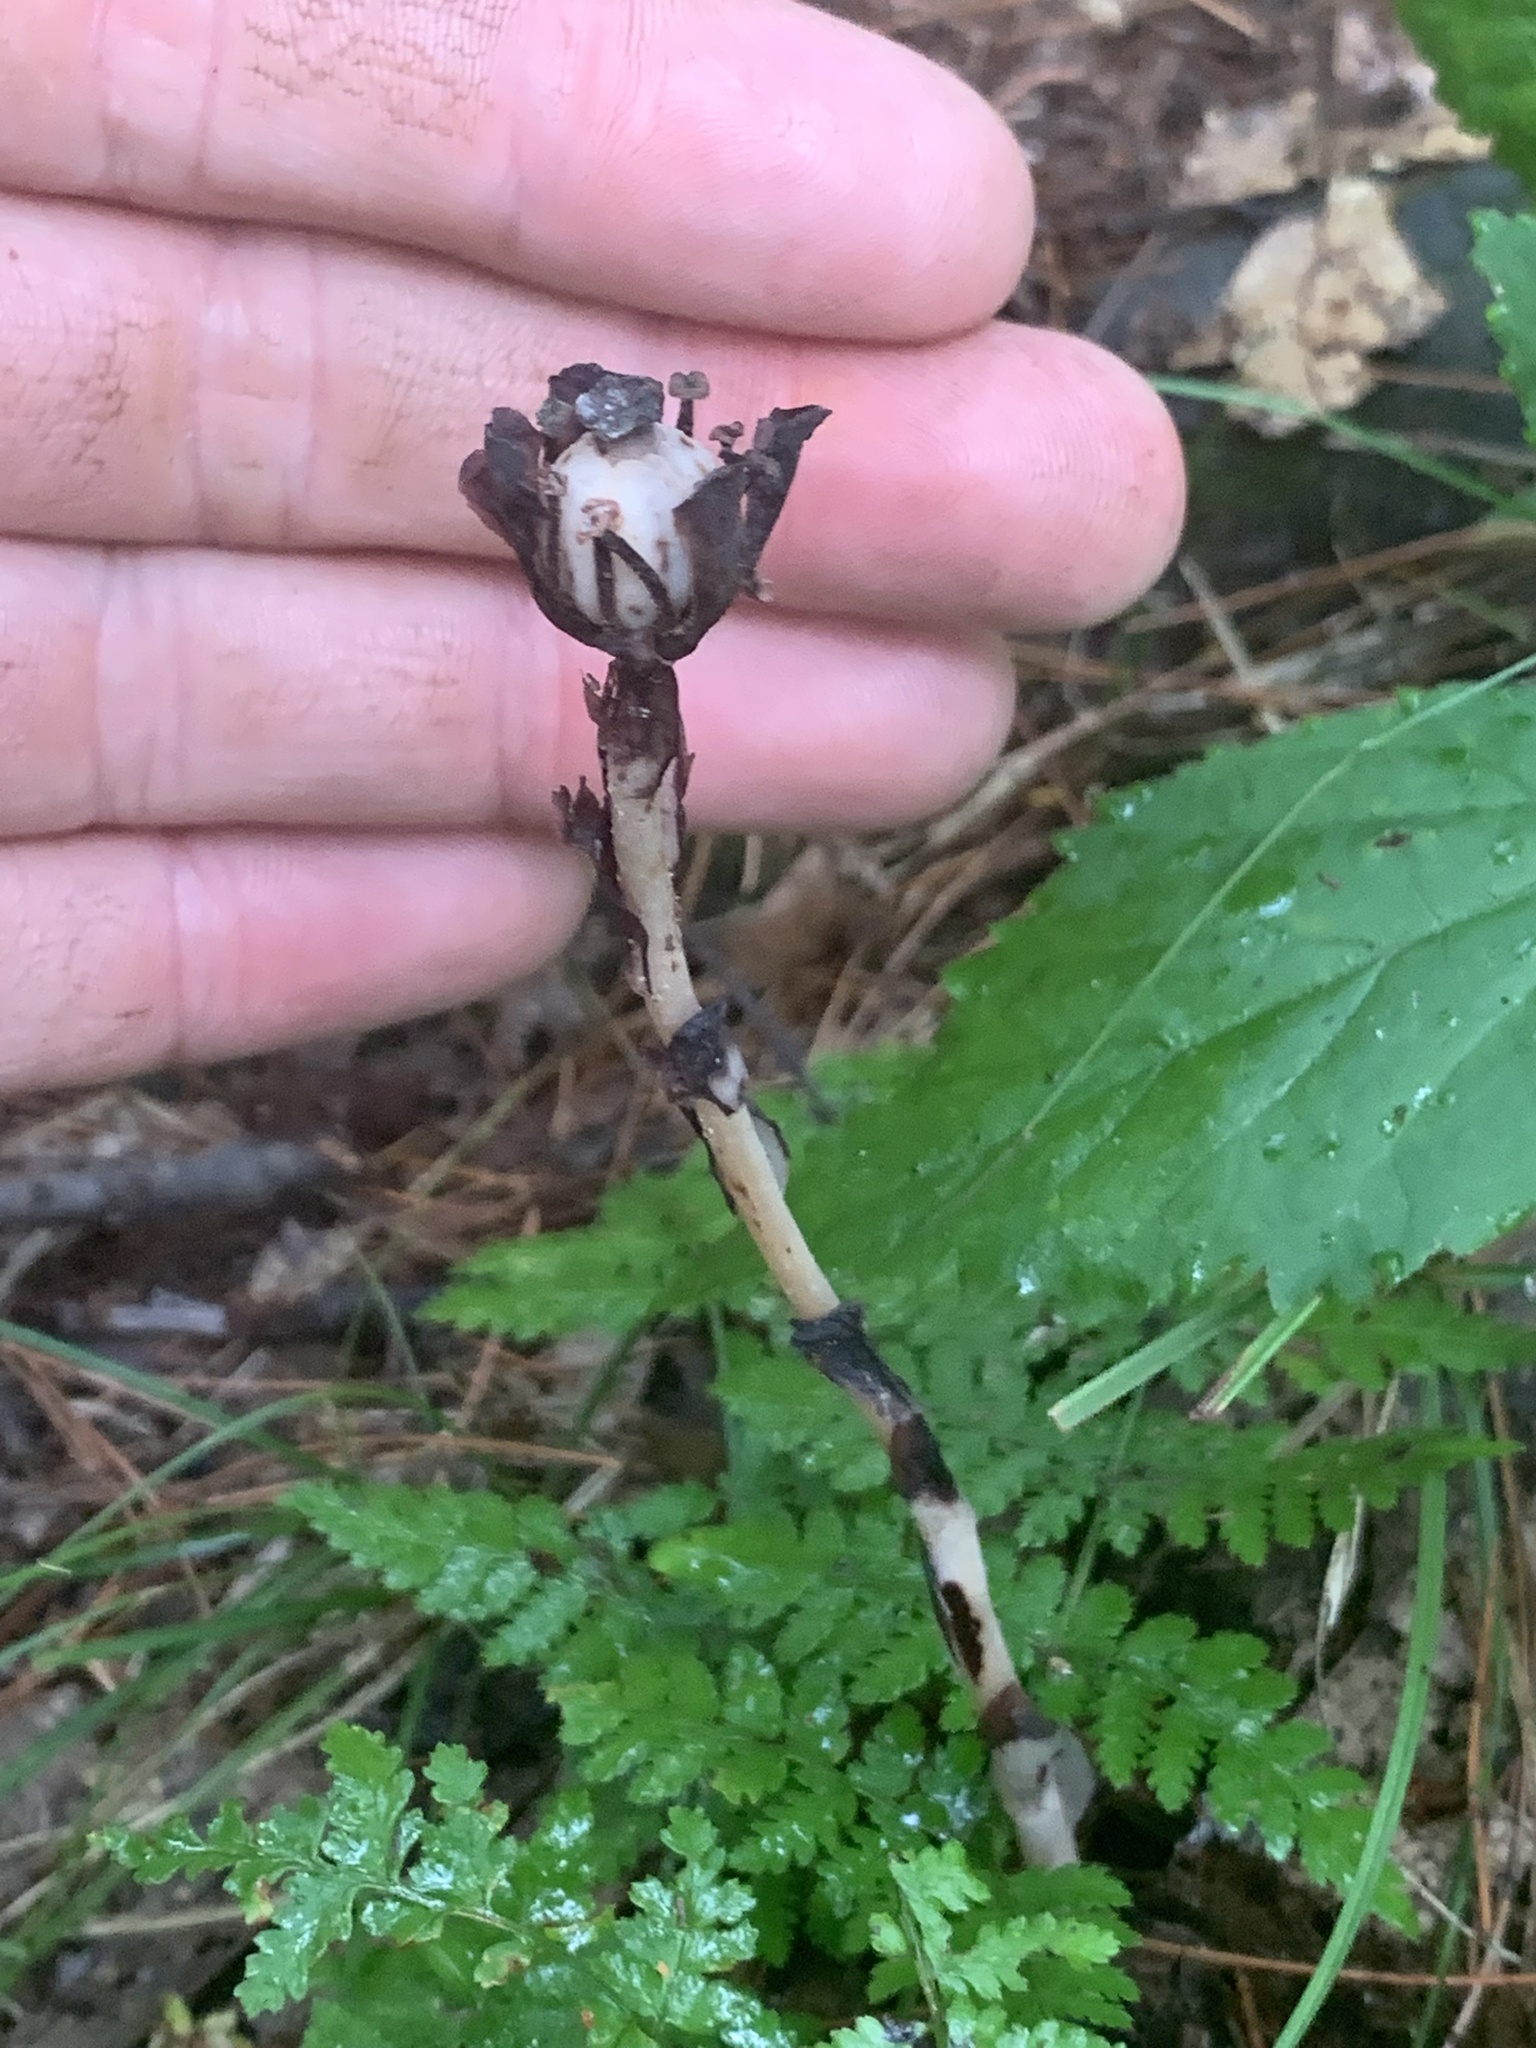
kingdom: Plantae
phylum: Tracheophyta
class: Magnoliopsida
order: Ericales
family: Ericaceae
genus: Monotropa
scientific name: Monotropa uniflora
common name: Convulsion root
